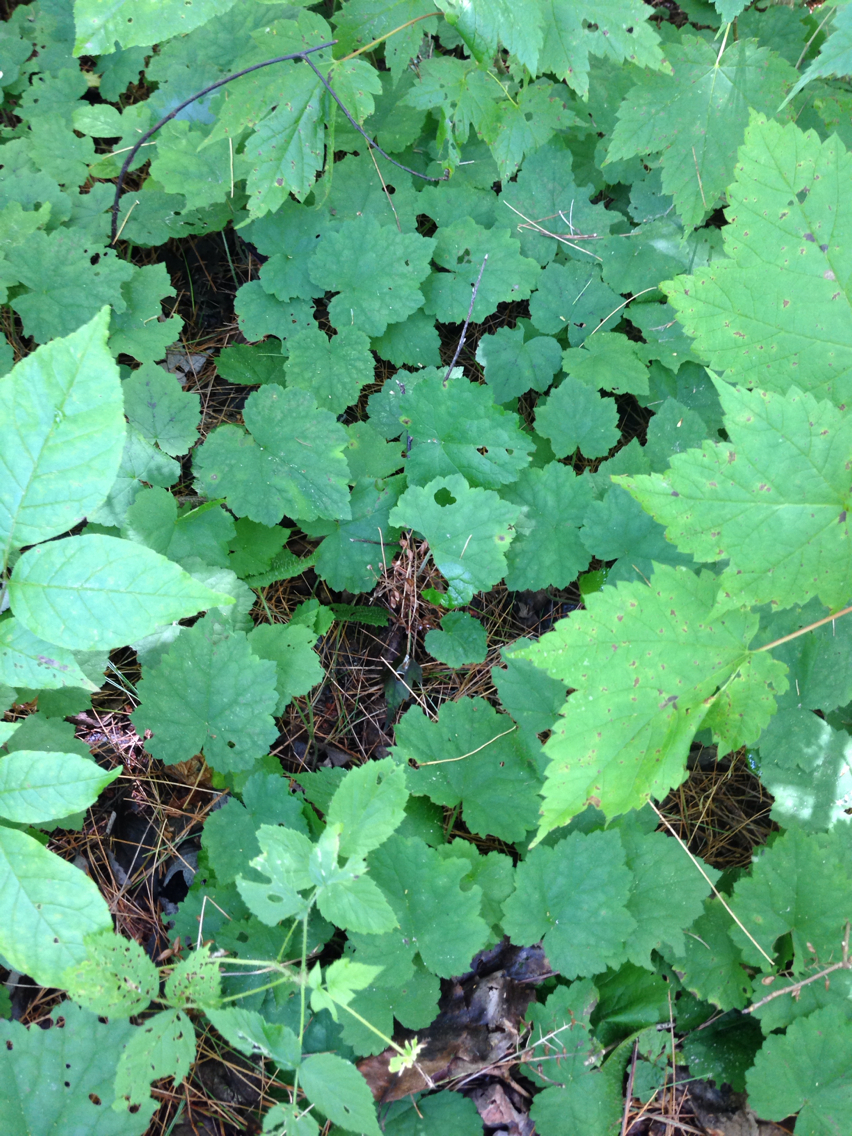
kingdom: Plantae
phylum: Tracheophyta
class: Magnoliopsida
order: Saxifragales
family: Saxifragaceae
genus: Tiarella
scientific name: Tiarella stolonifera
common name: Stoloniferous foamflower
